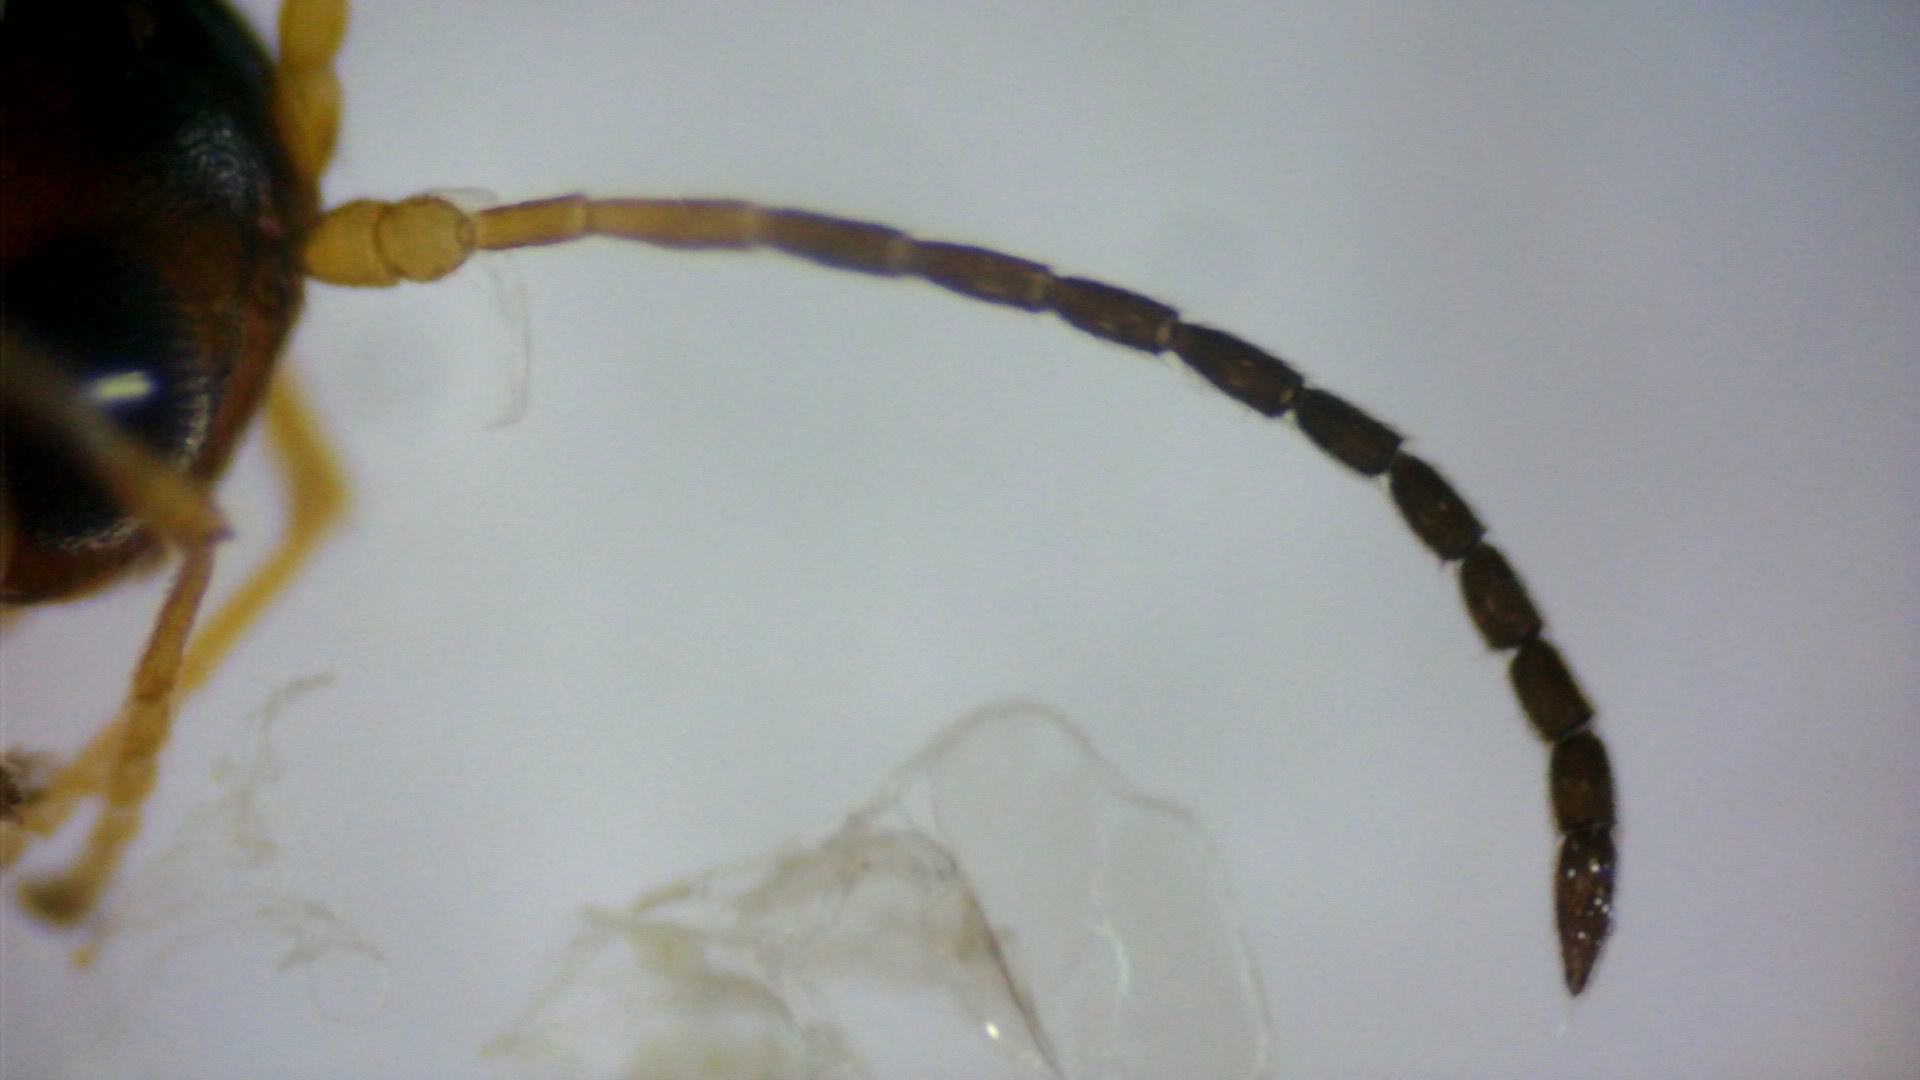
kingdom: Animalia
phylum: Arthropoda
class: Insecta
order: Hymenoptera
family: Cynipidae
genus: Plagiotrochus
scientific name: Plagiotrochus quercusilicis
